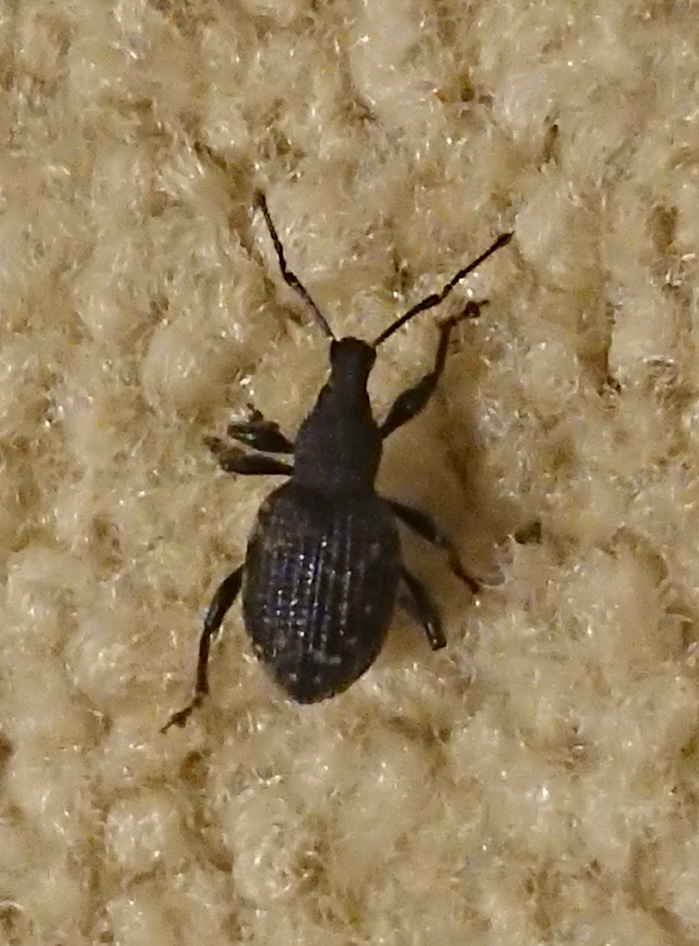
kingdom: Animalia
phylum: Arthropoda
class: Insecta
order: Coleoptera
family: Curculionidae
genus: Otiorhynchus
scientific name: Otiorhynchus sulcatus
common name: Black vine weevil
